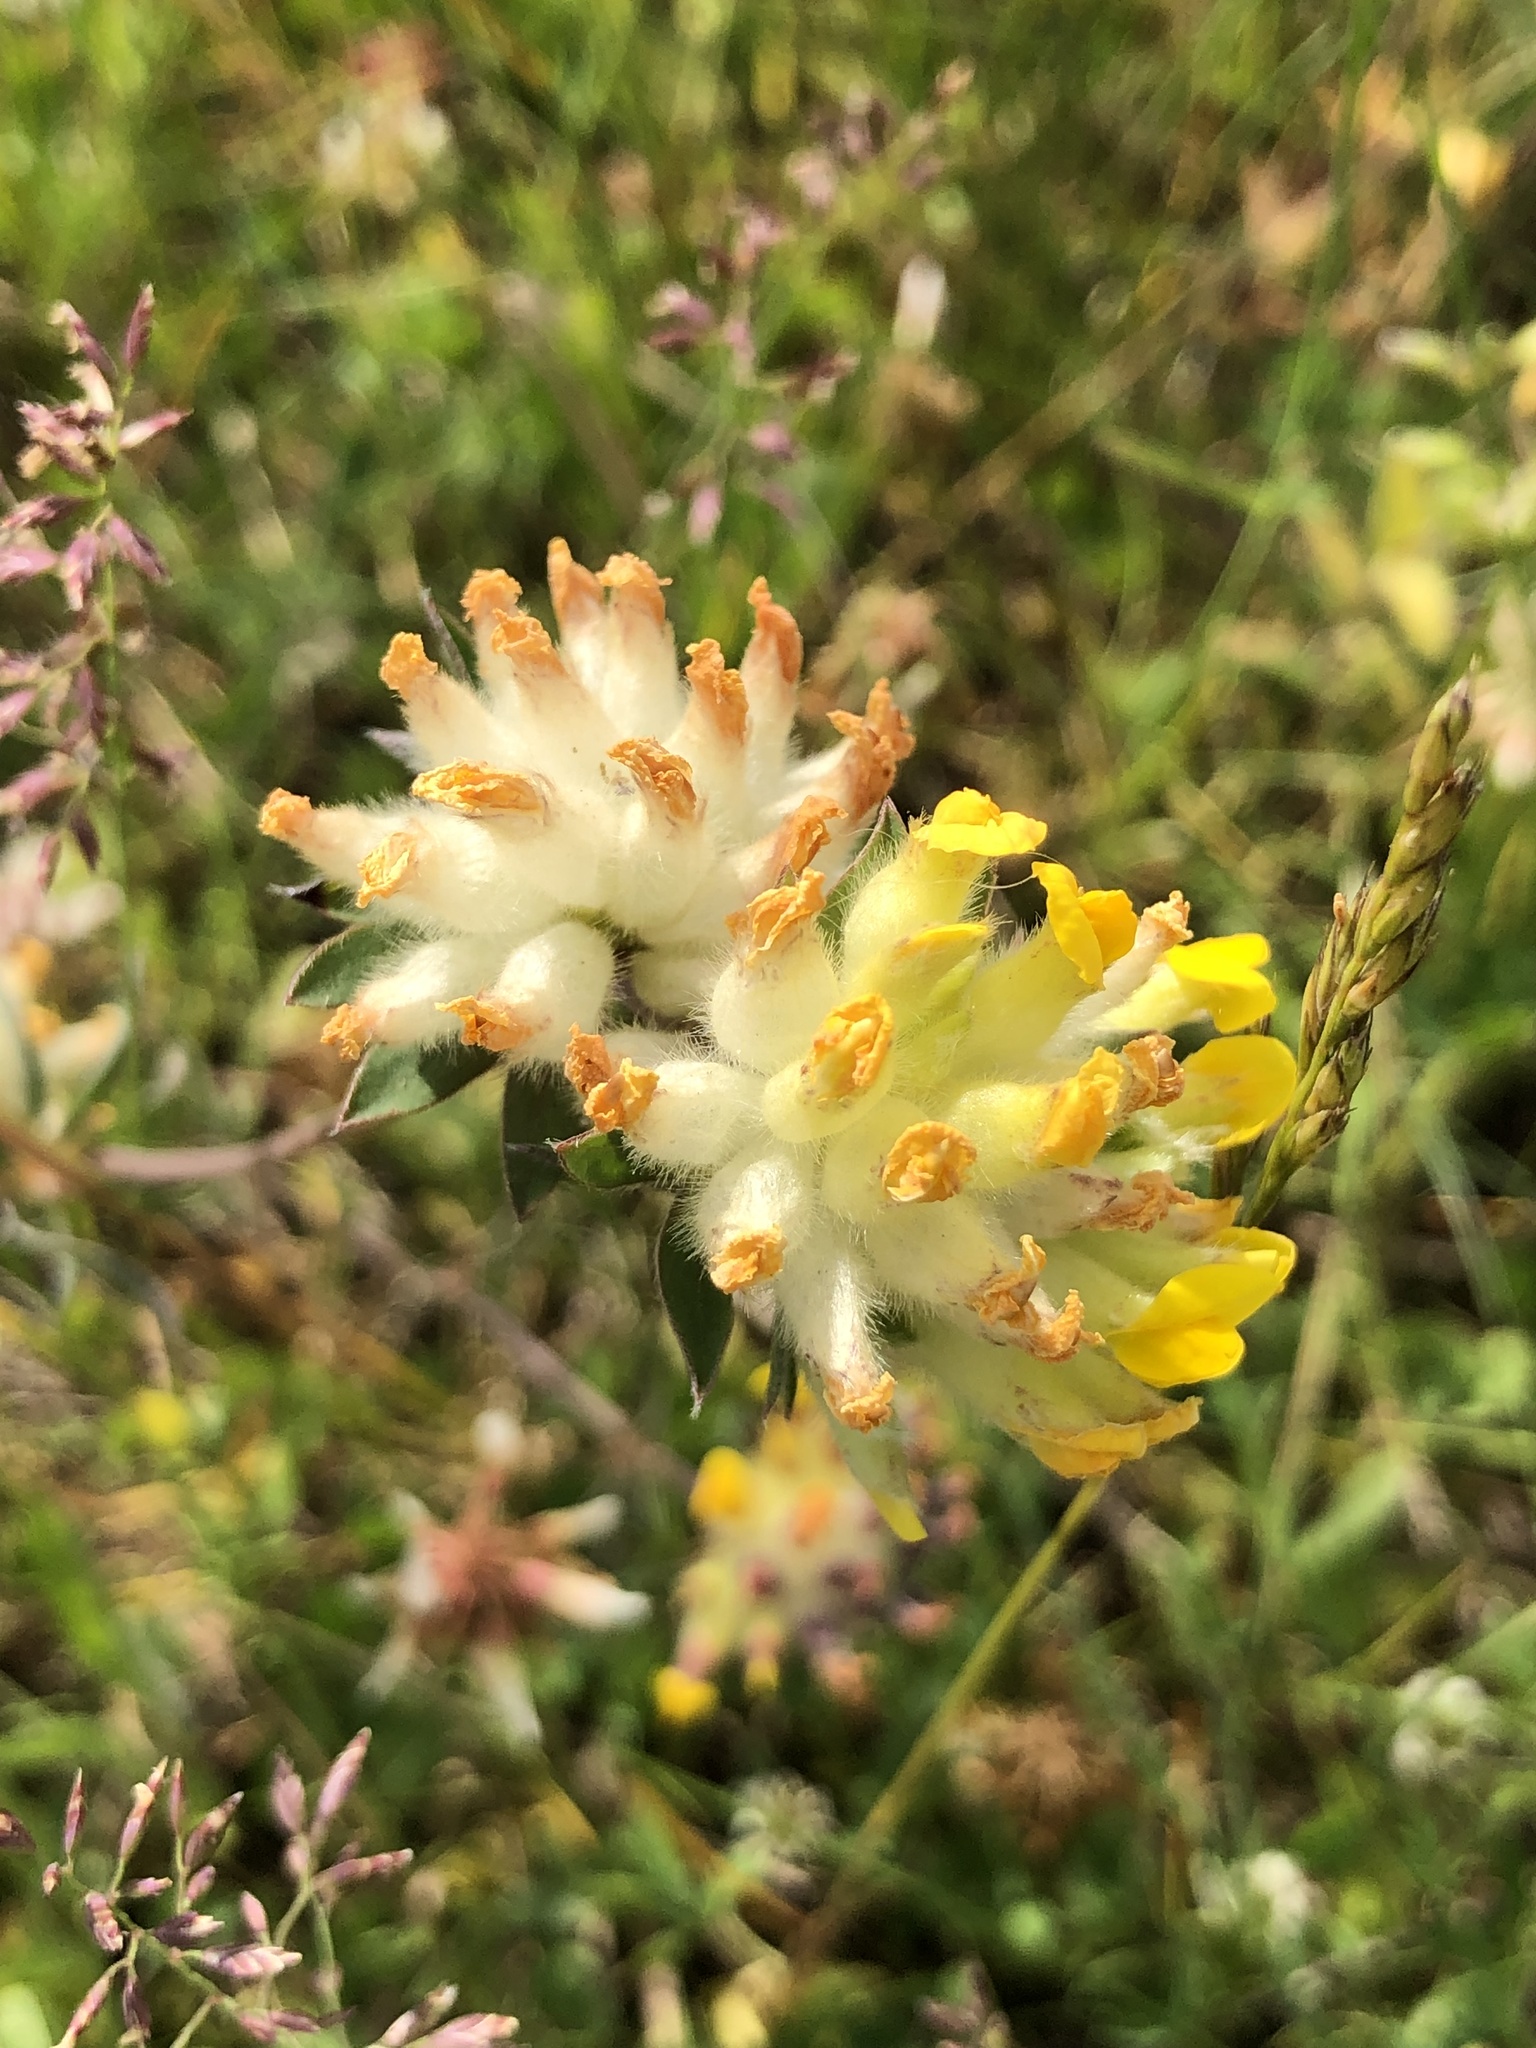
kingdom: Plantae
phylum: Tracheophyta
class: Magnoliopsida
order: Fabales
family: Fabaceae
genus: Anthyllis
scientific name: Anthyllis vulneraria
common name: Kidney vetch
